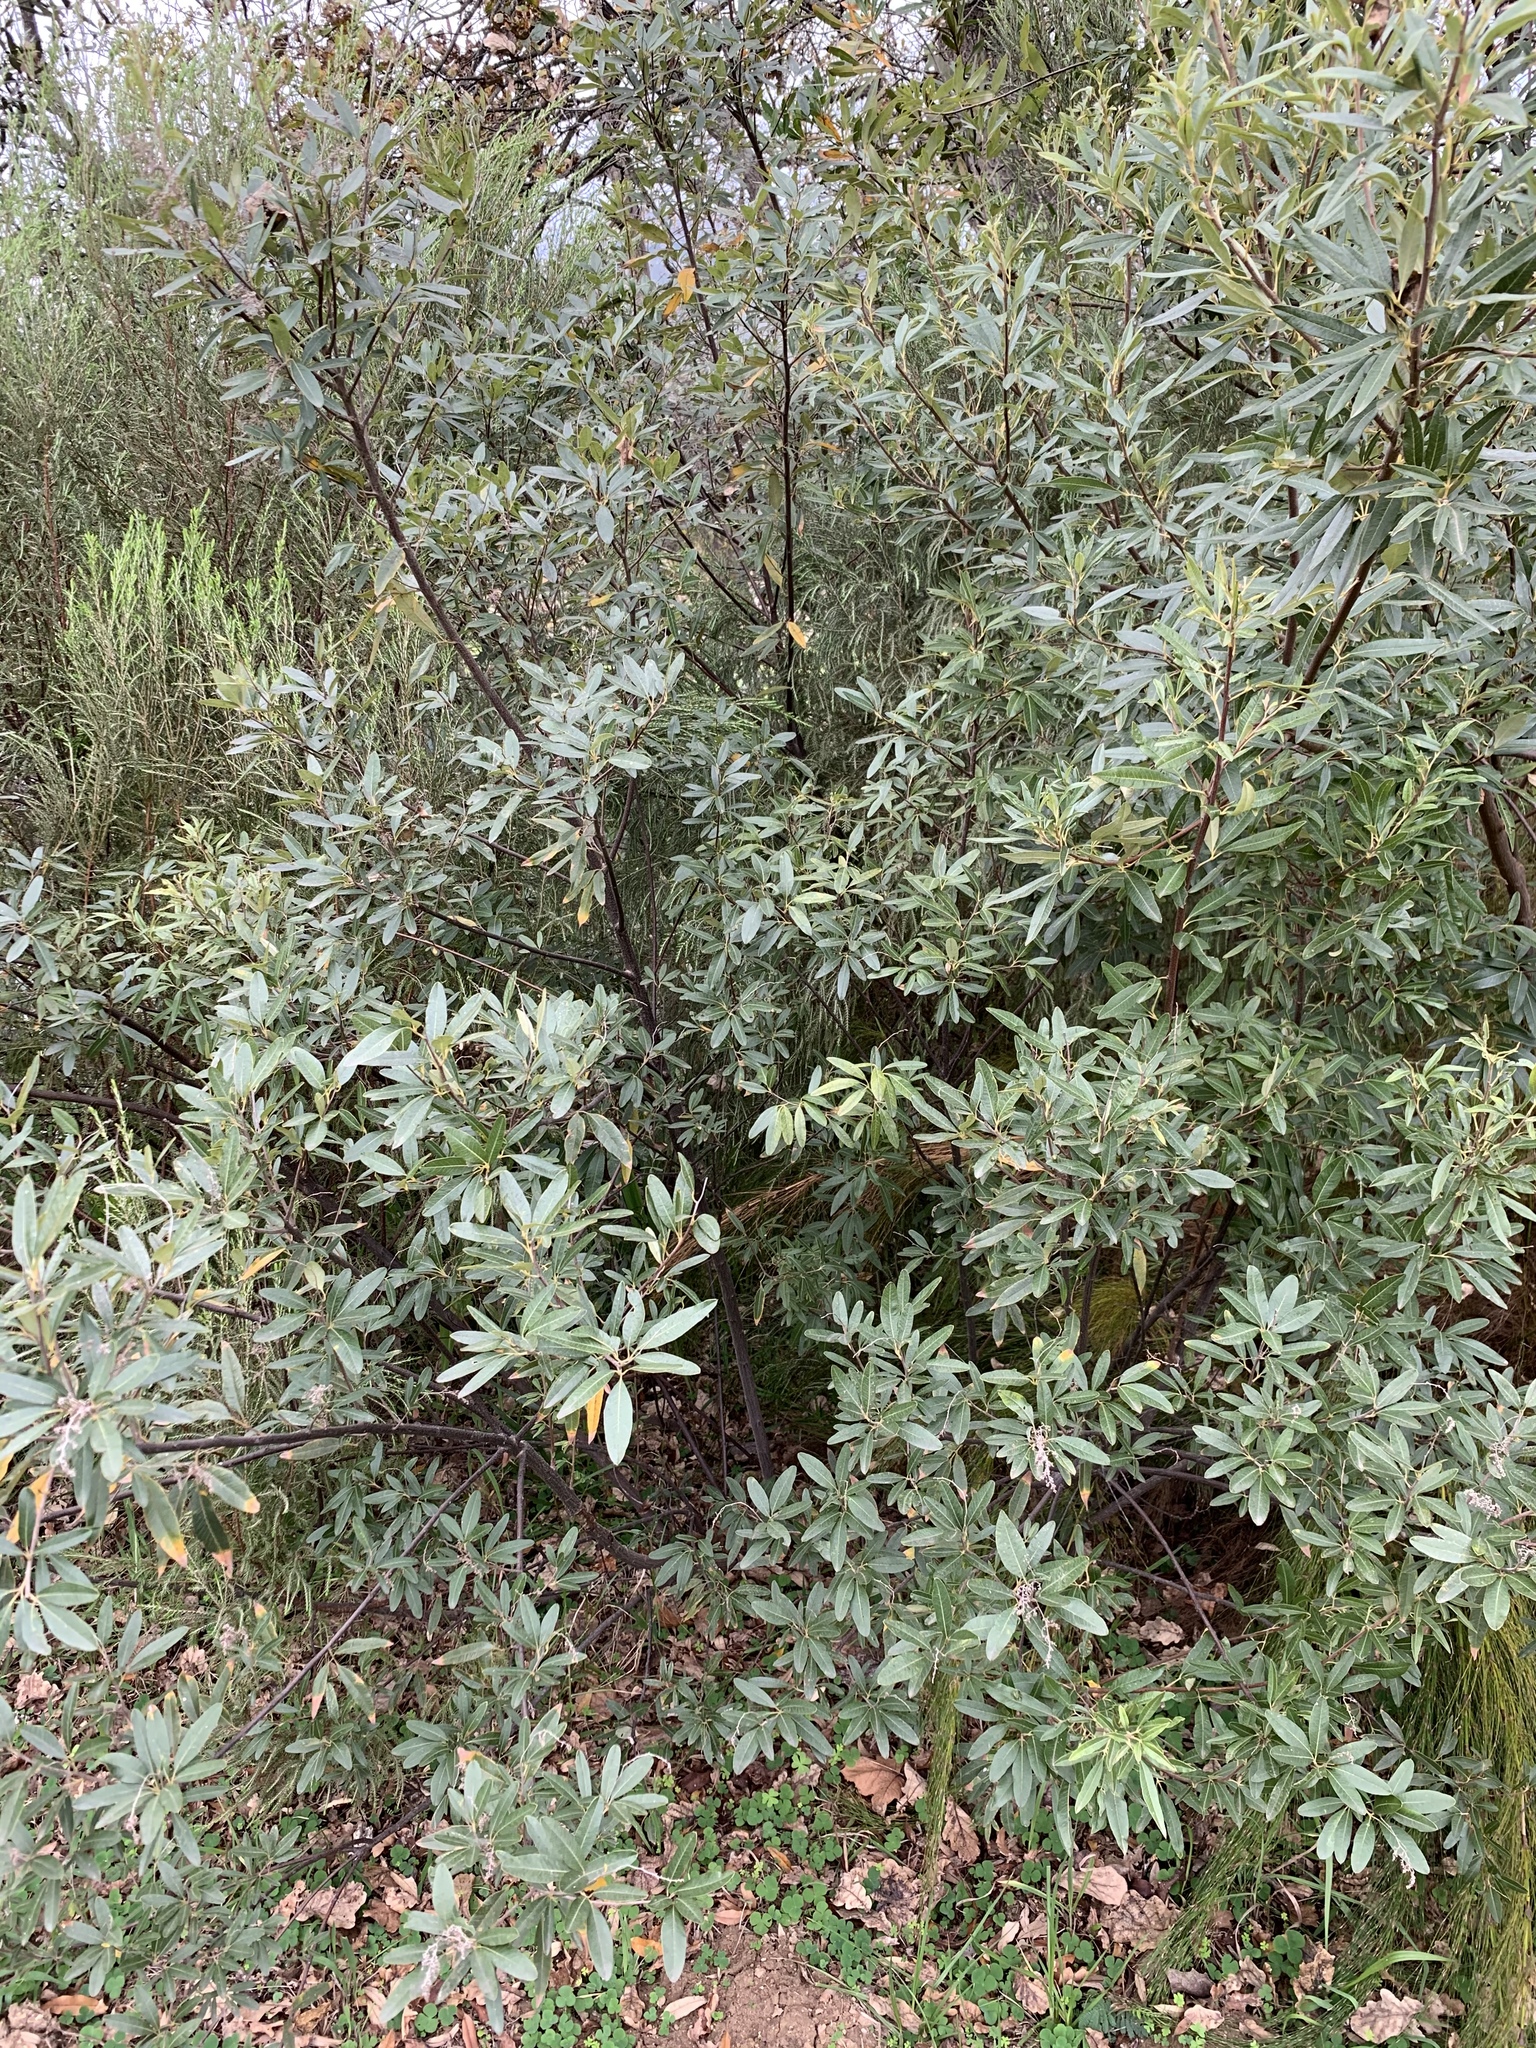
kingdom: Plantae
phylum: Tracheophyta
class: Magnoliopsida
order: Sapindales
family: Anacardiaceae
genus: Searsia
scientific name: Searsia angustifolia
